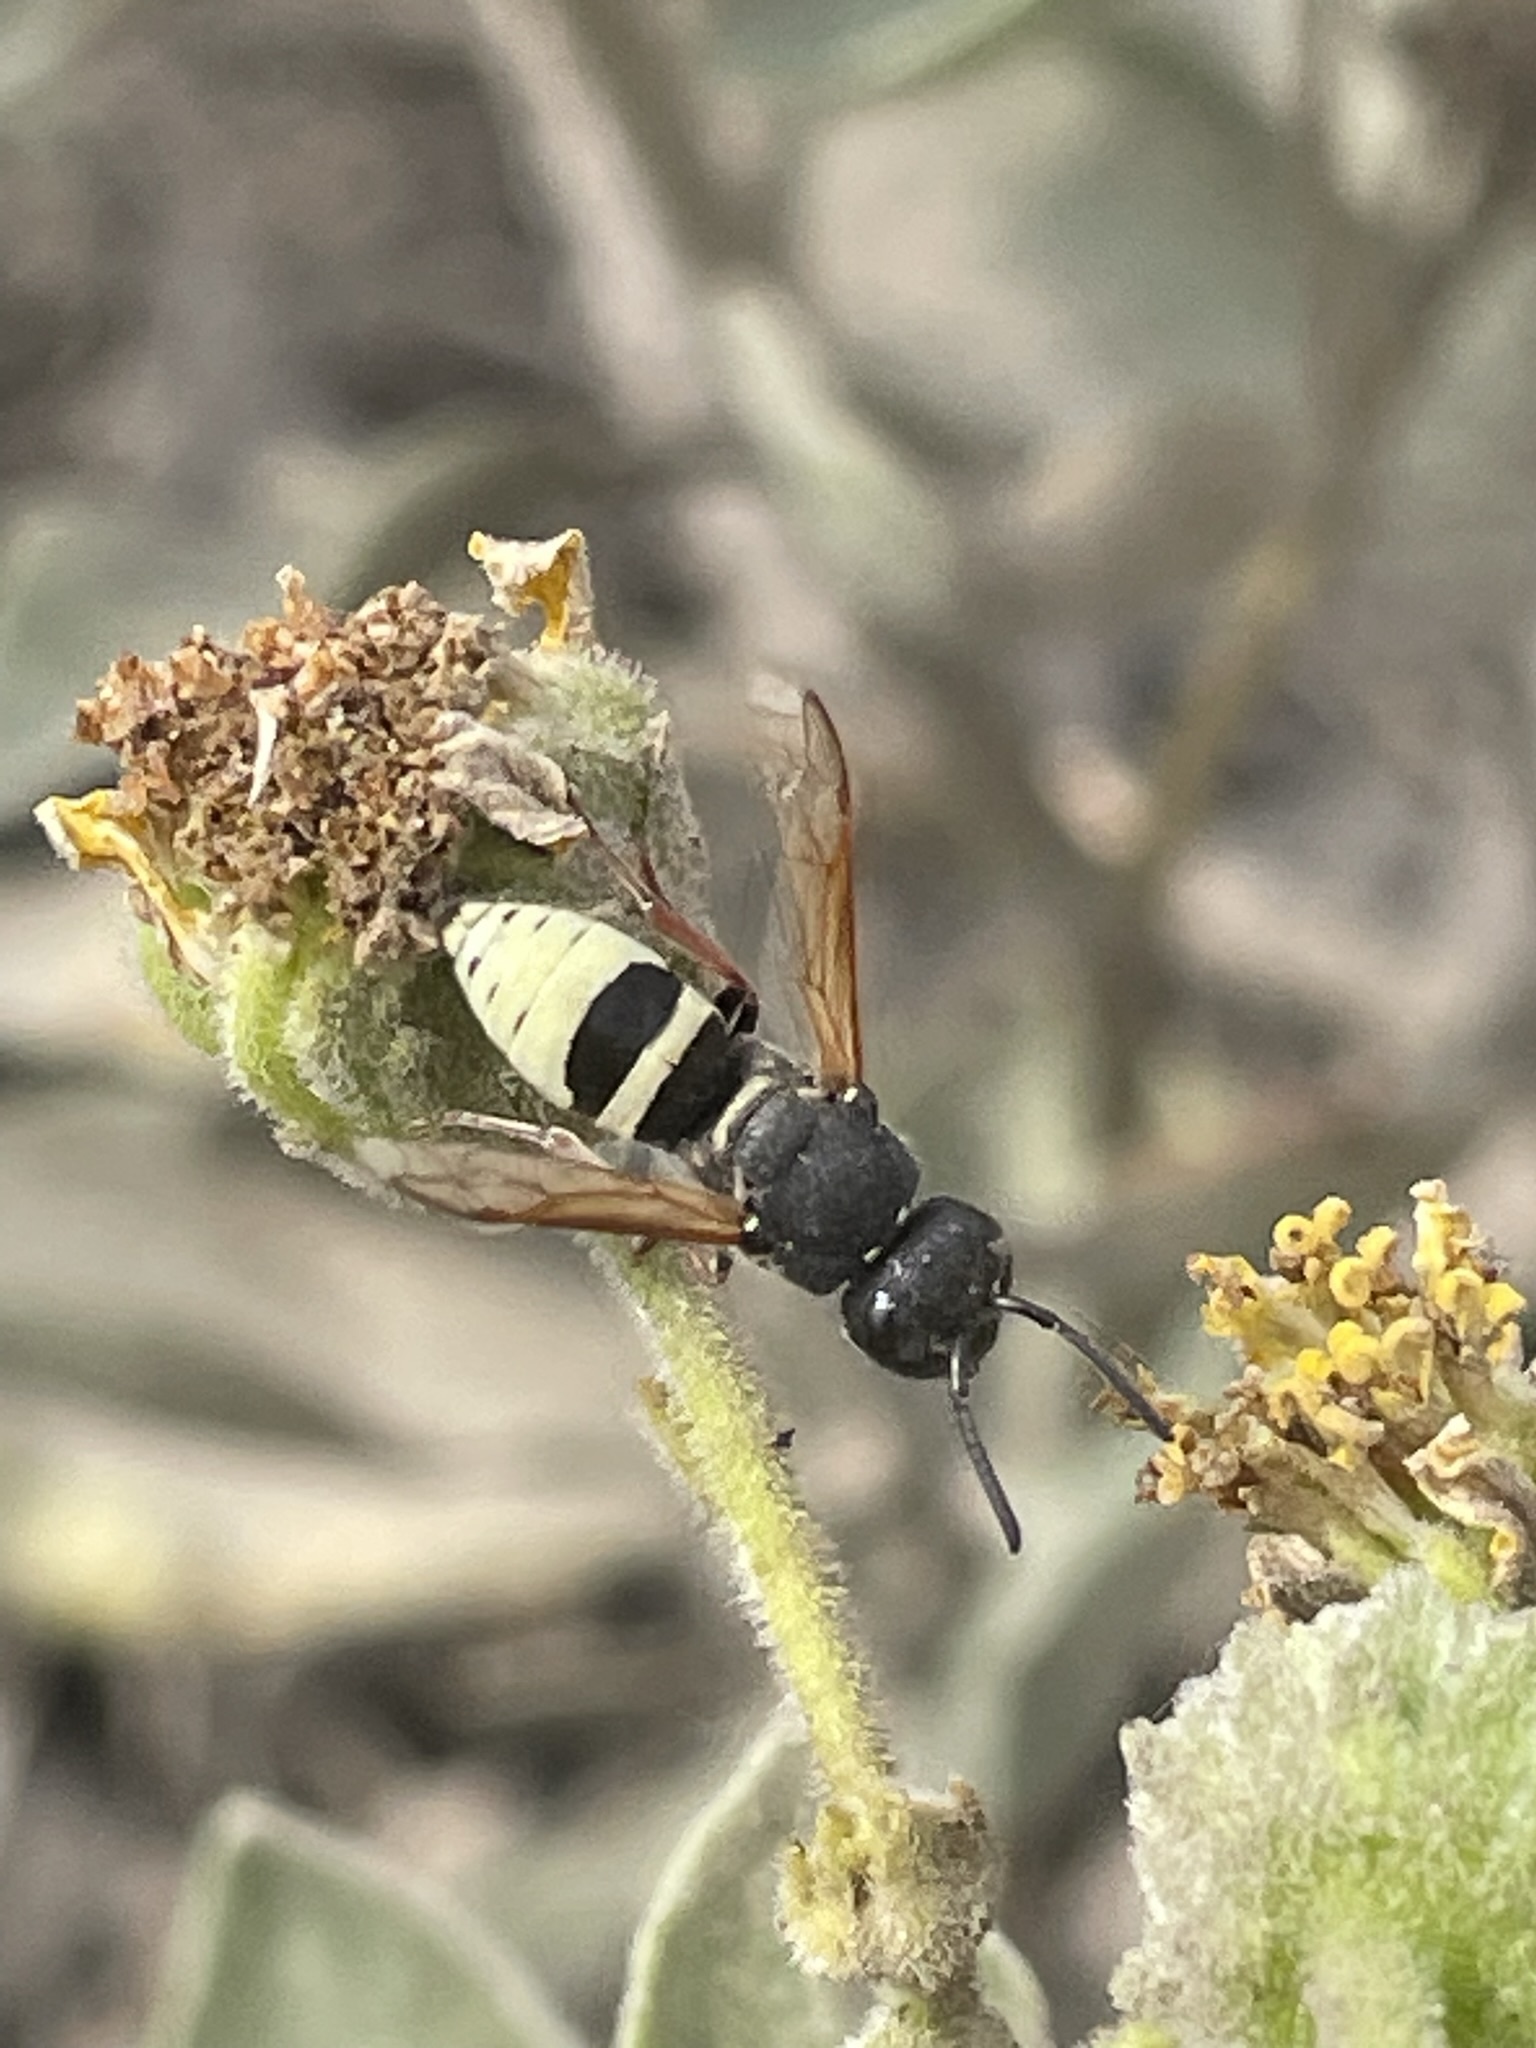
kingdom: Animalia
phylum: Arthropoda
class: Insecta
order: Hymenoptera
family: Eumenidae
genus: Pachodynerus
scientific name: Pachodynerus peruensis
